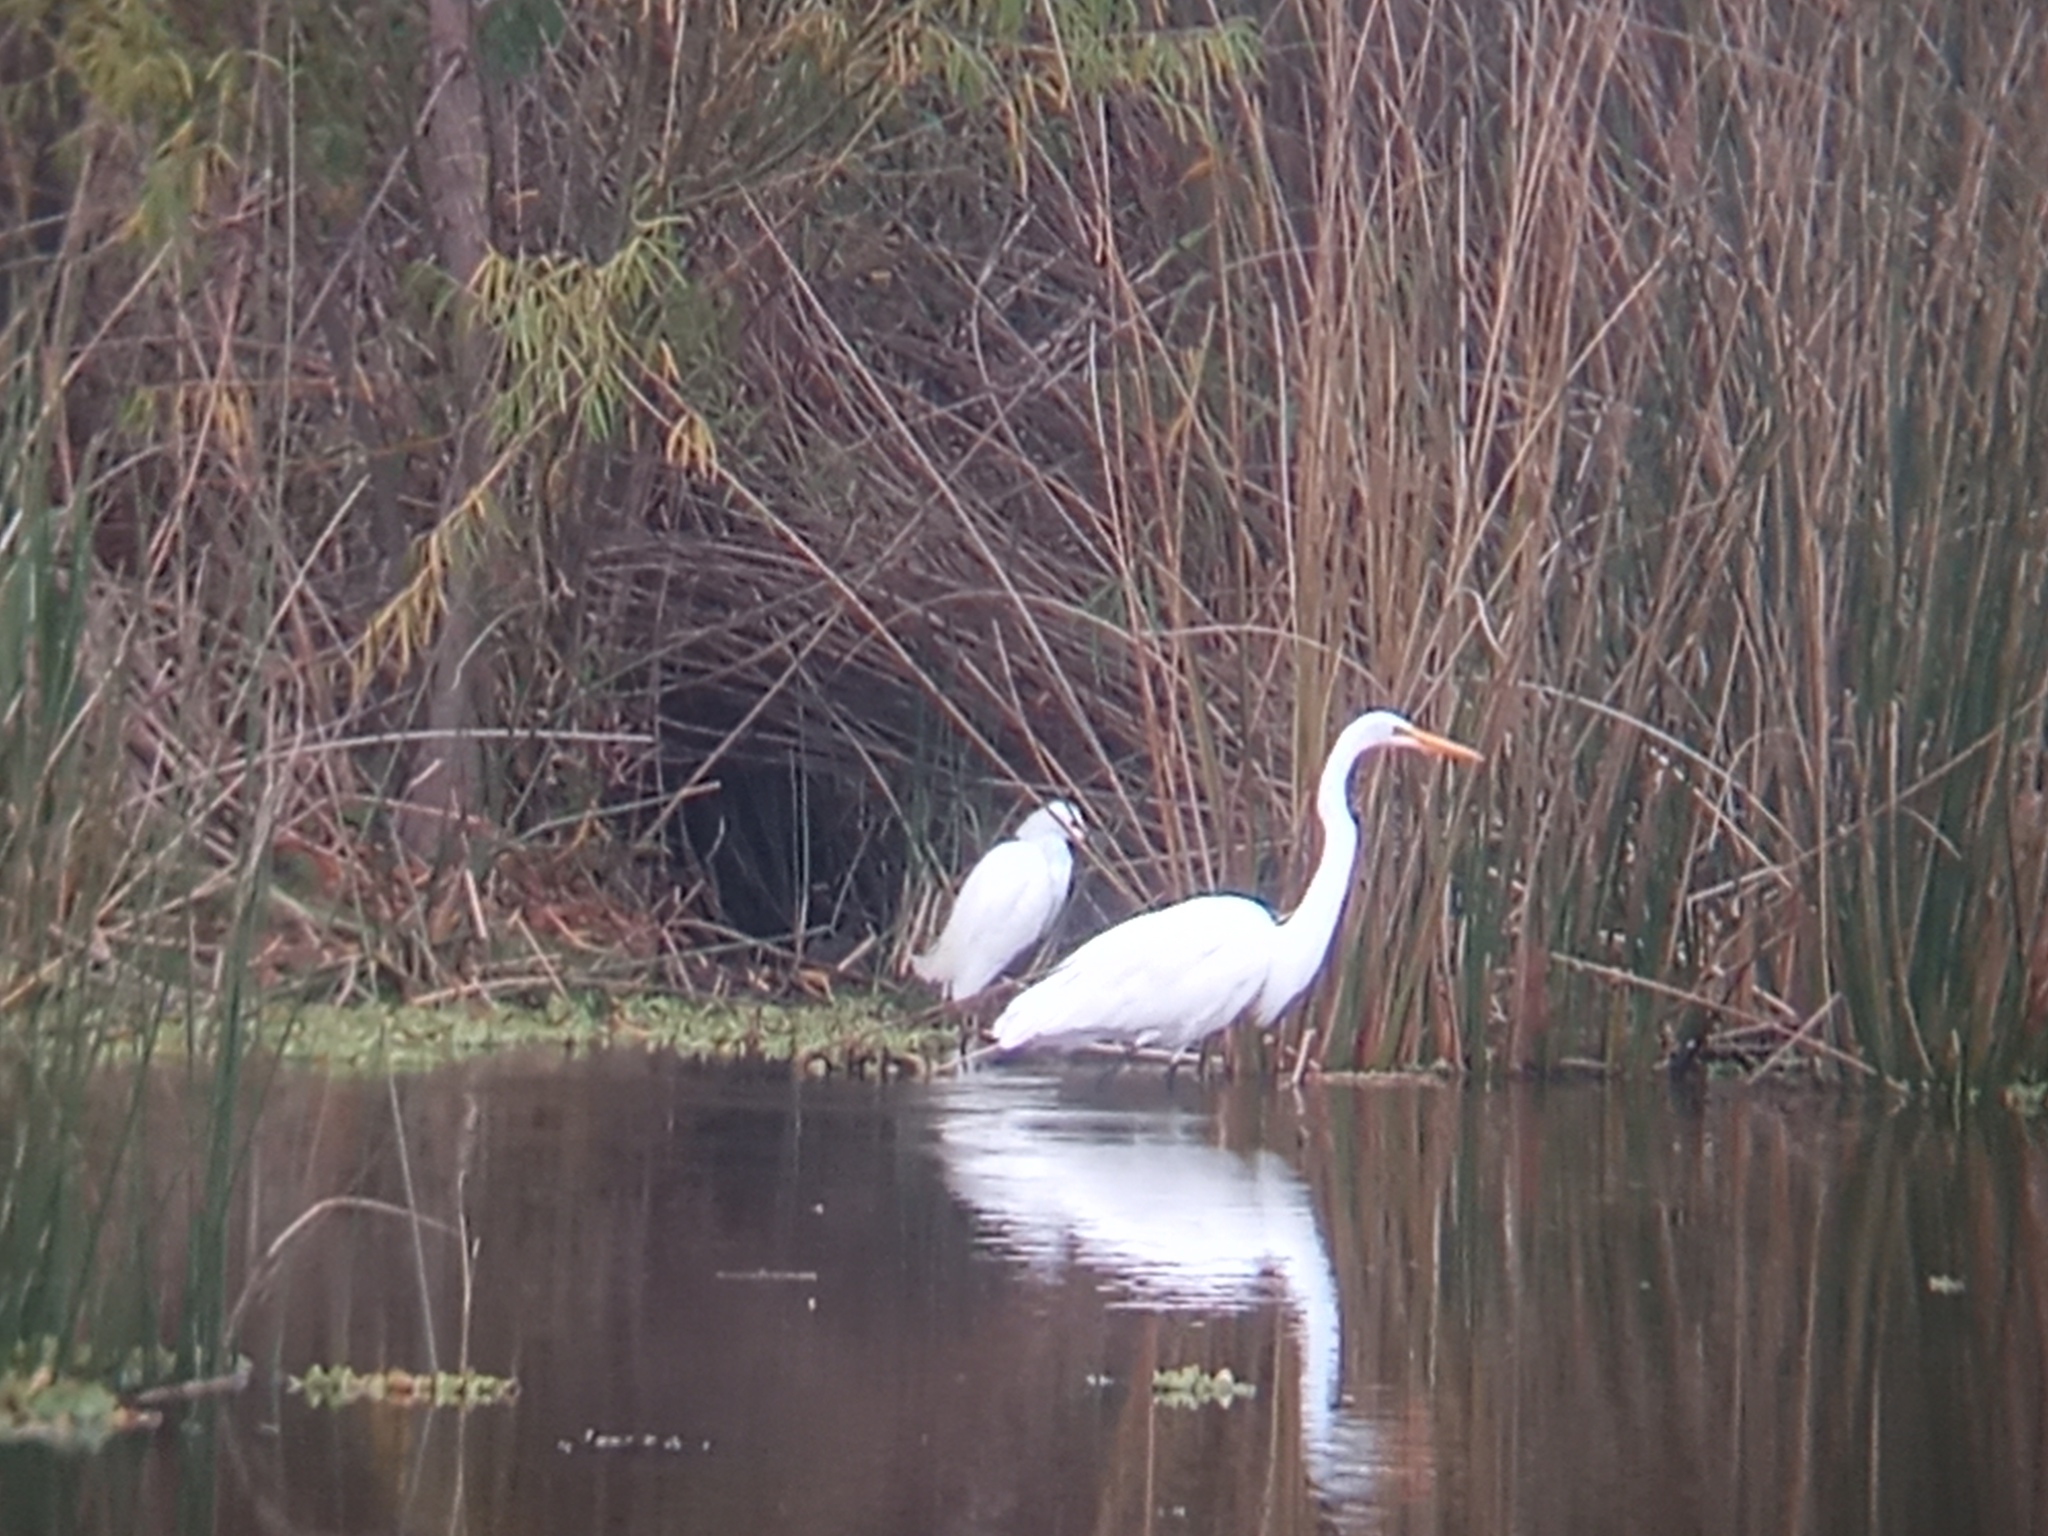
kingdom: Animalia
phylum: Chordata
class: Aves
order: Pelecaniformes
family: Ardeidae
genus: Ardea
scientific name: Ardea alba
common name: Great egret
